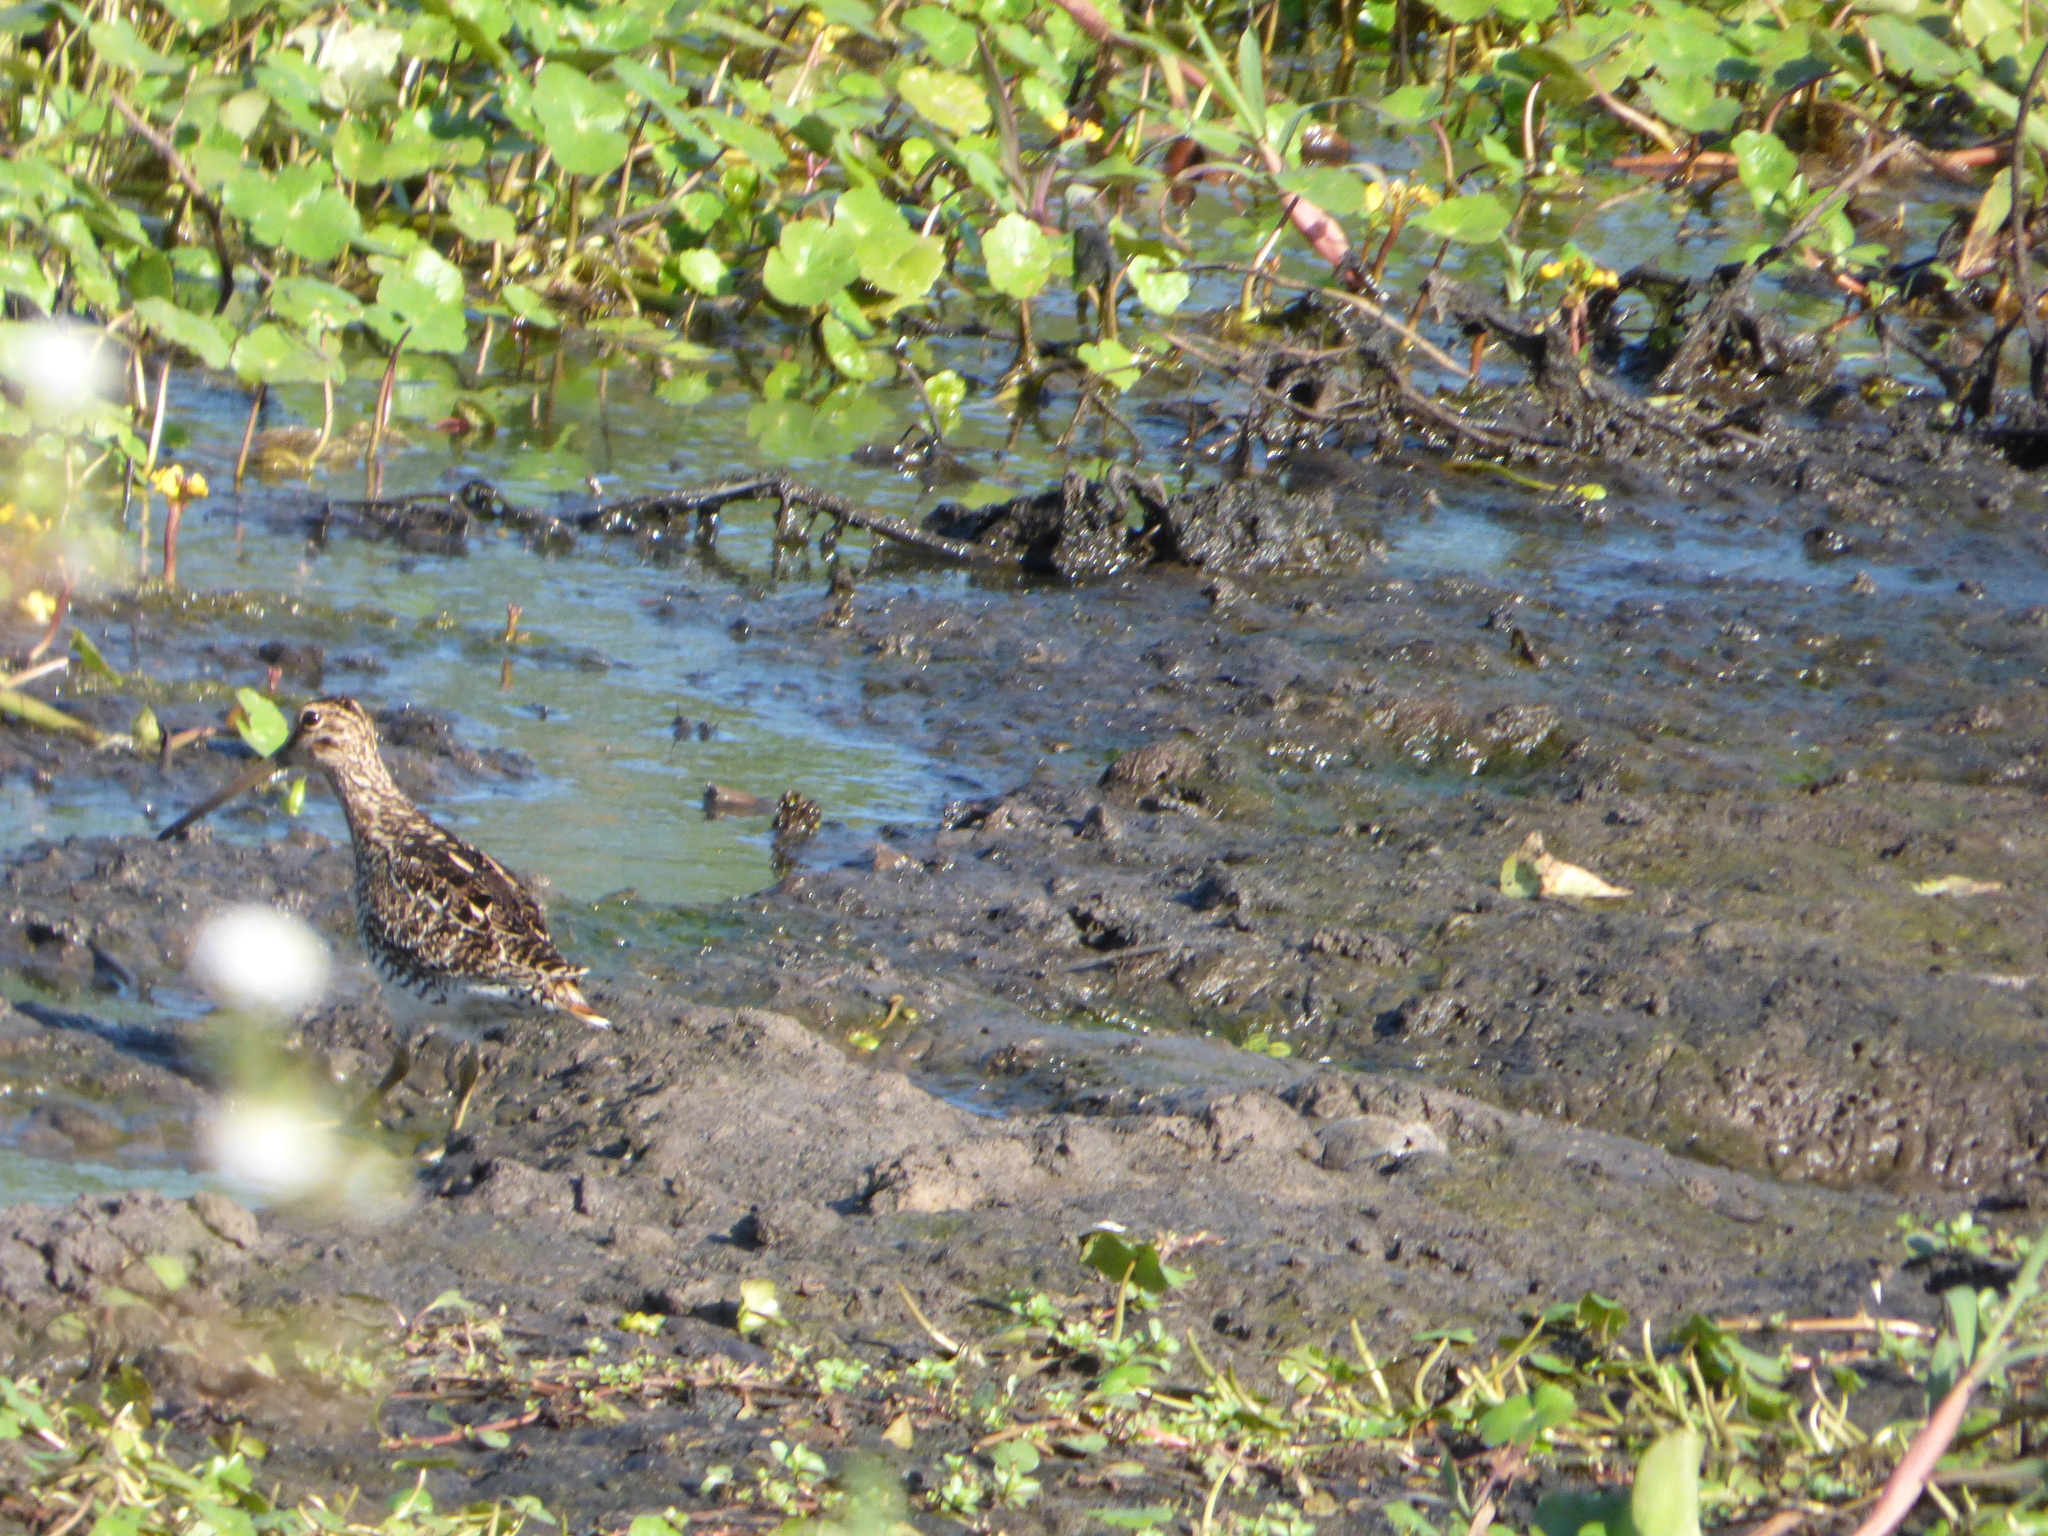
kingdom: Animalia
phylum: Chordata
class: Aves
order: Charadriiformes
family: Scolopacidae
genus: Gallinago
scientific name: Gallinago paraguaiae
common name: South american snipe
